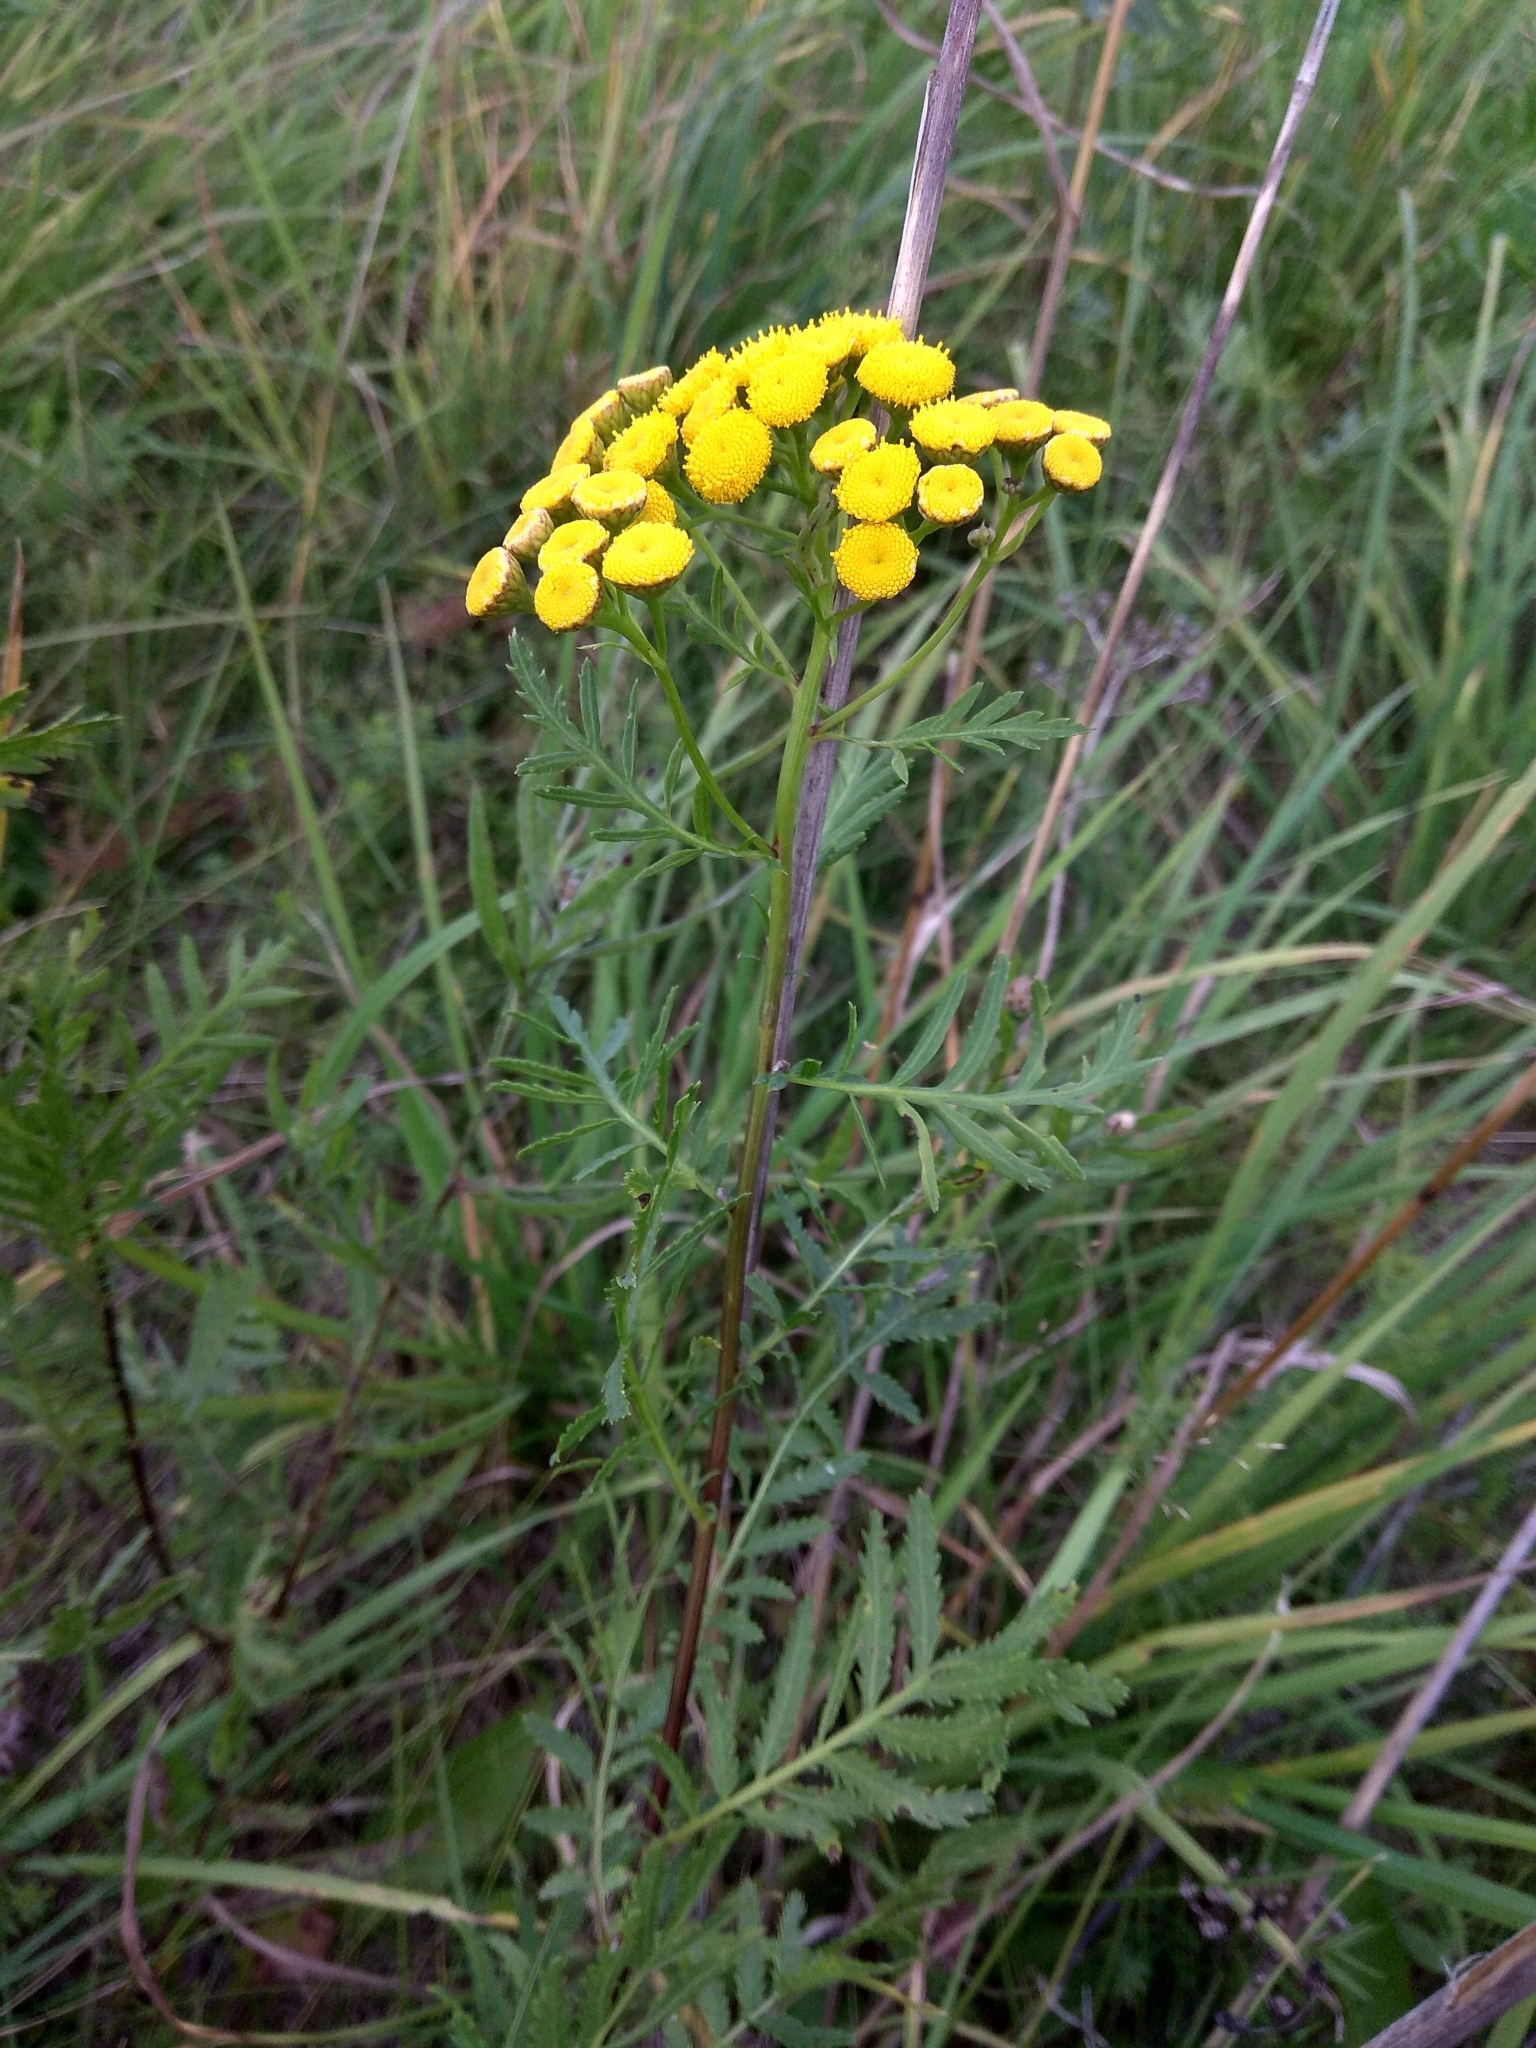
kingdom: Plantae
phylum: Tracheophyta
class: Magnoliopsida
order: Asterales
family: Asteraceae
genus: Tanacetum
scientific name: Tanacetum vulgare
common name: Common tansy
